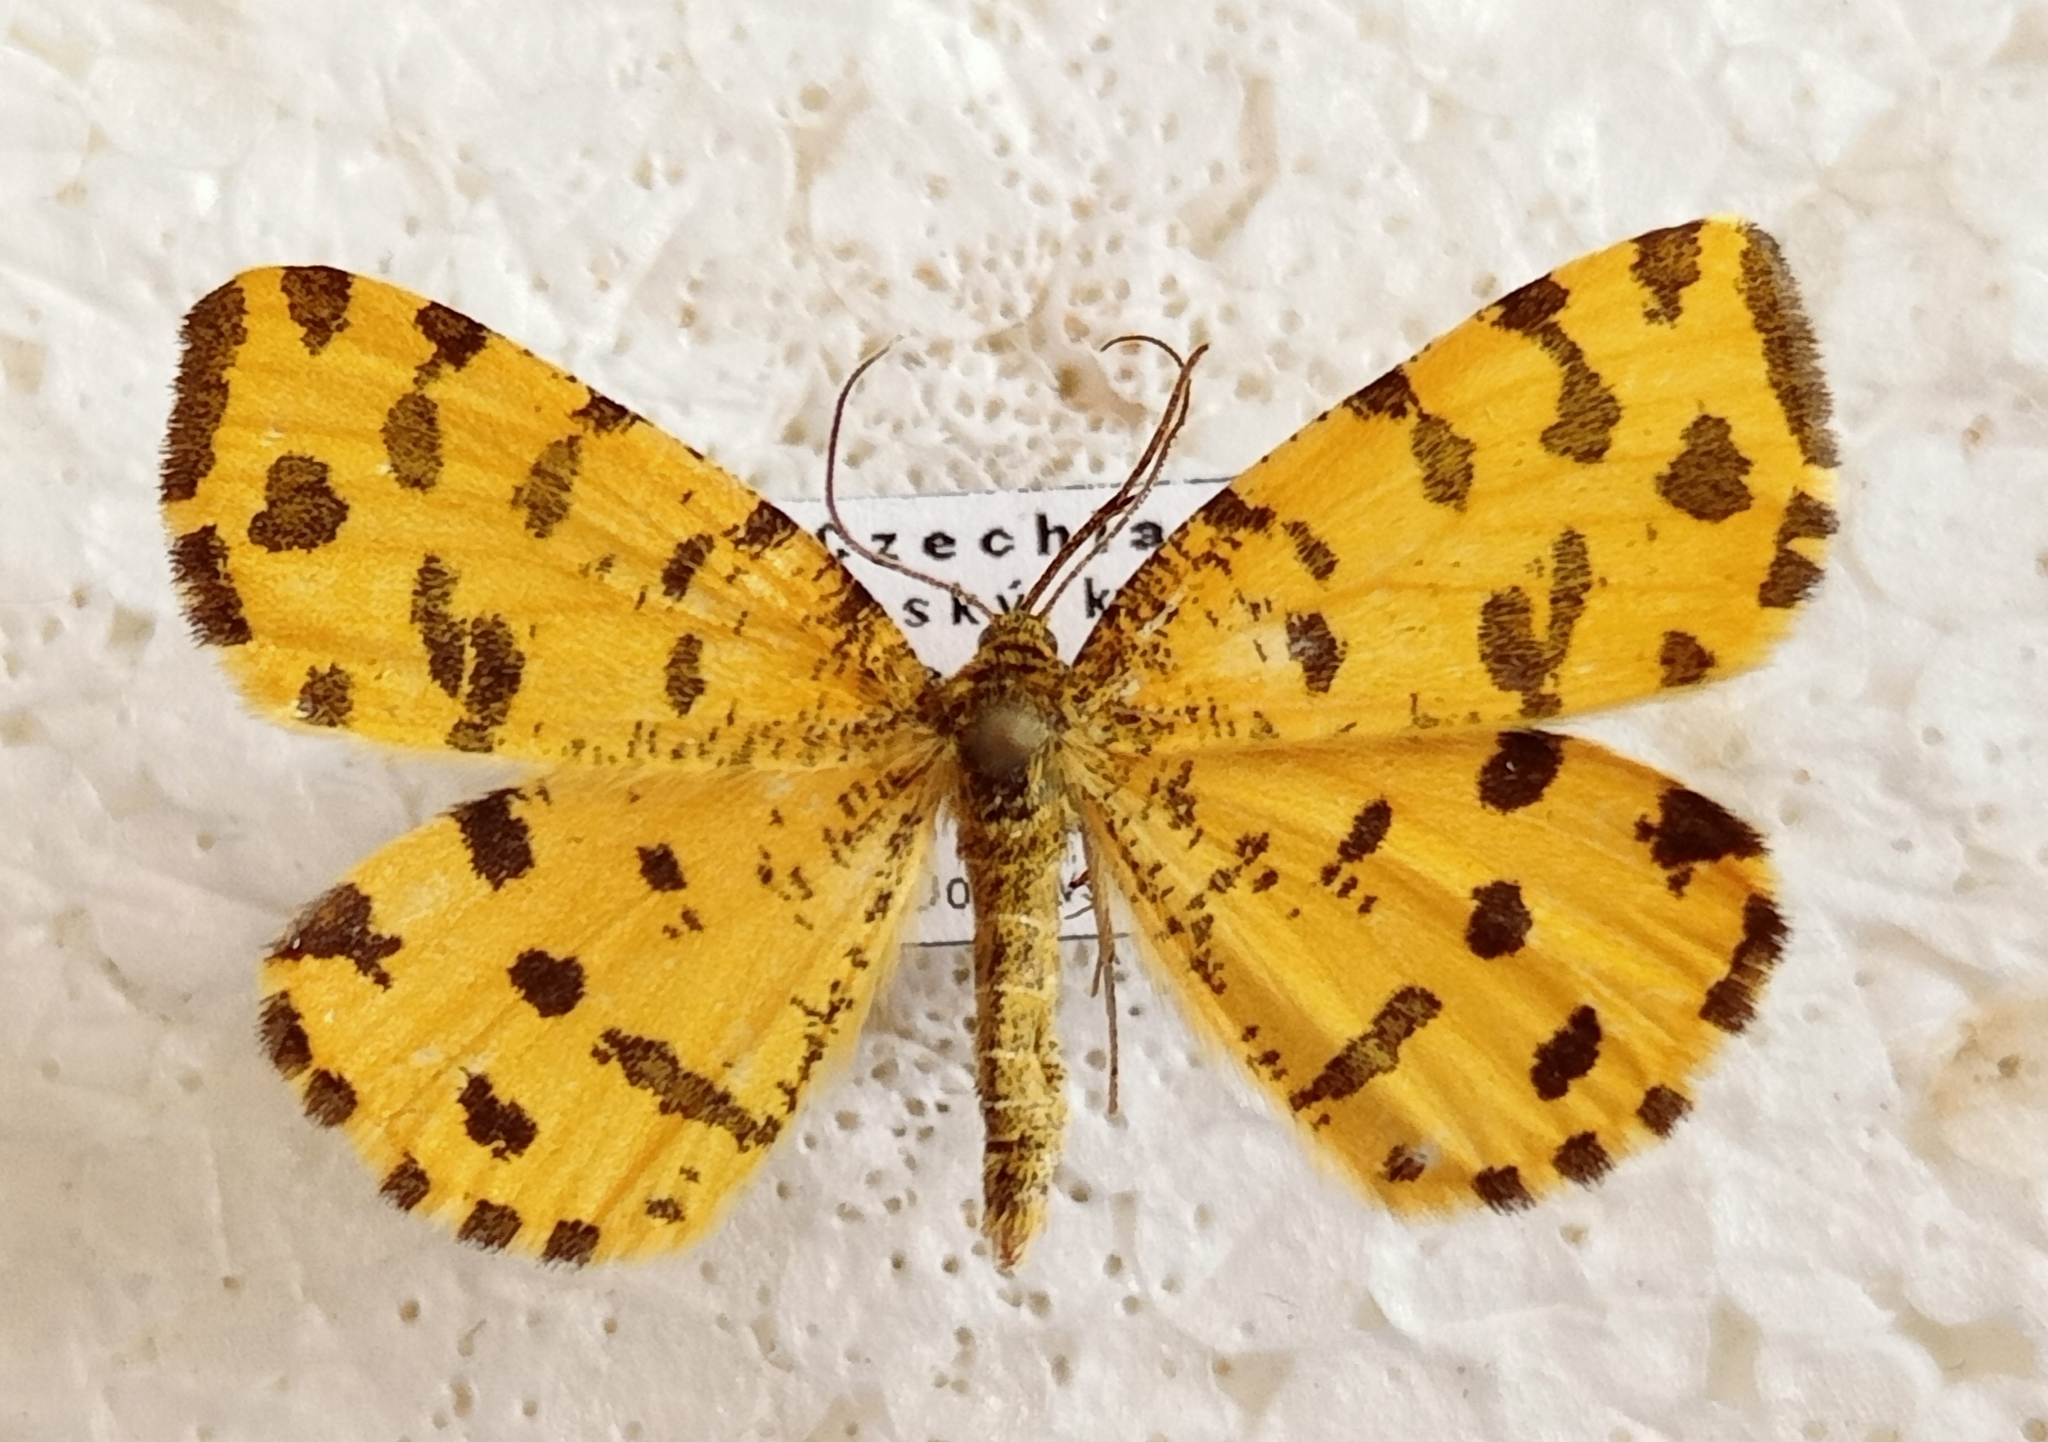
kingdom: Animalia
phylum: Arthropoda
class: Insecta
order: Lepidoptera
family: Geometridae
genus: Pseudopanthera
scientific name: Pseudopanthera macularia
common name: Speckled yellow
